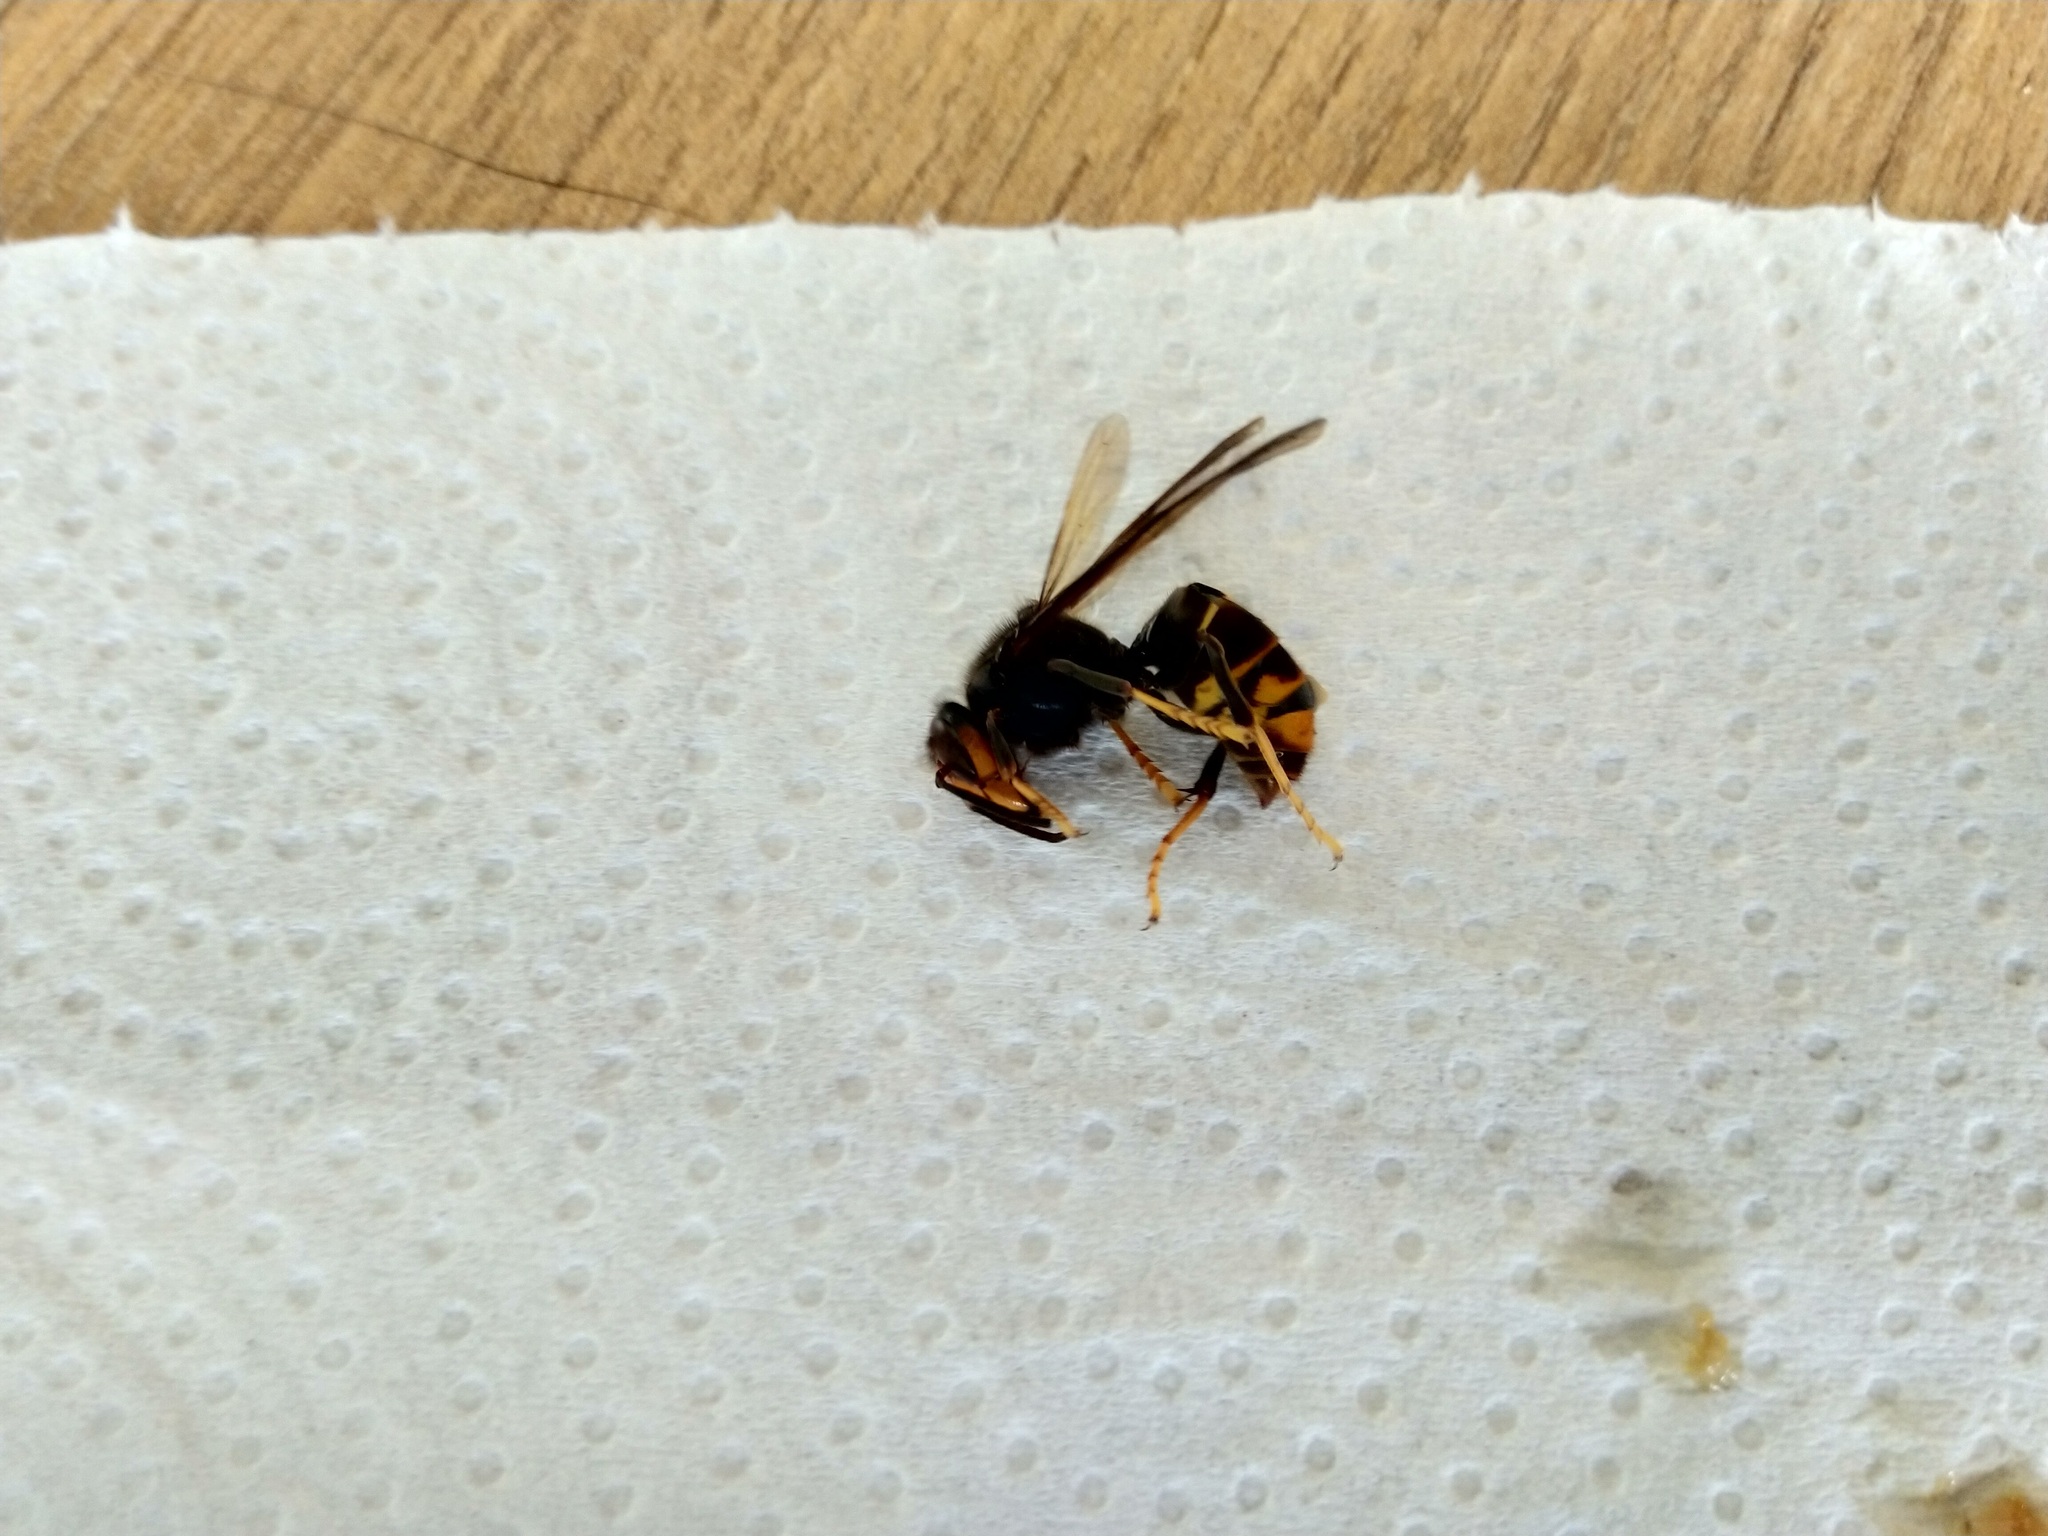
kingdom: Animalia
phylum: Arthropoda
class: Insecta
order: Hymenoptera
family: Vespidae
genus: Vespa
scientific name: Vespa velutina
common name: Asian hornet
